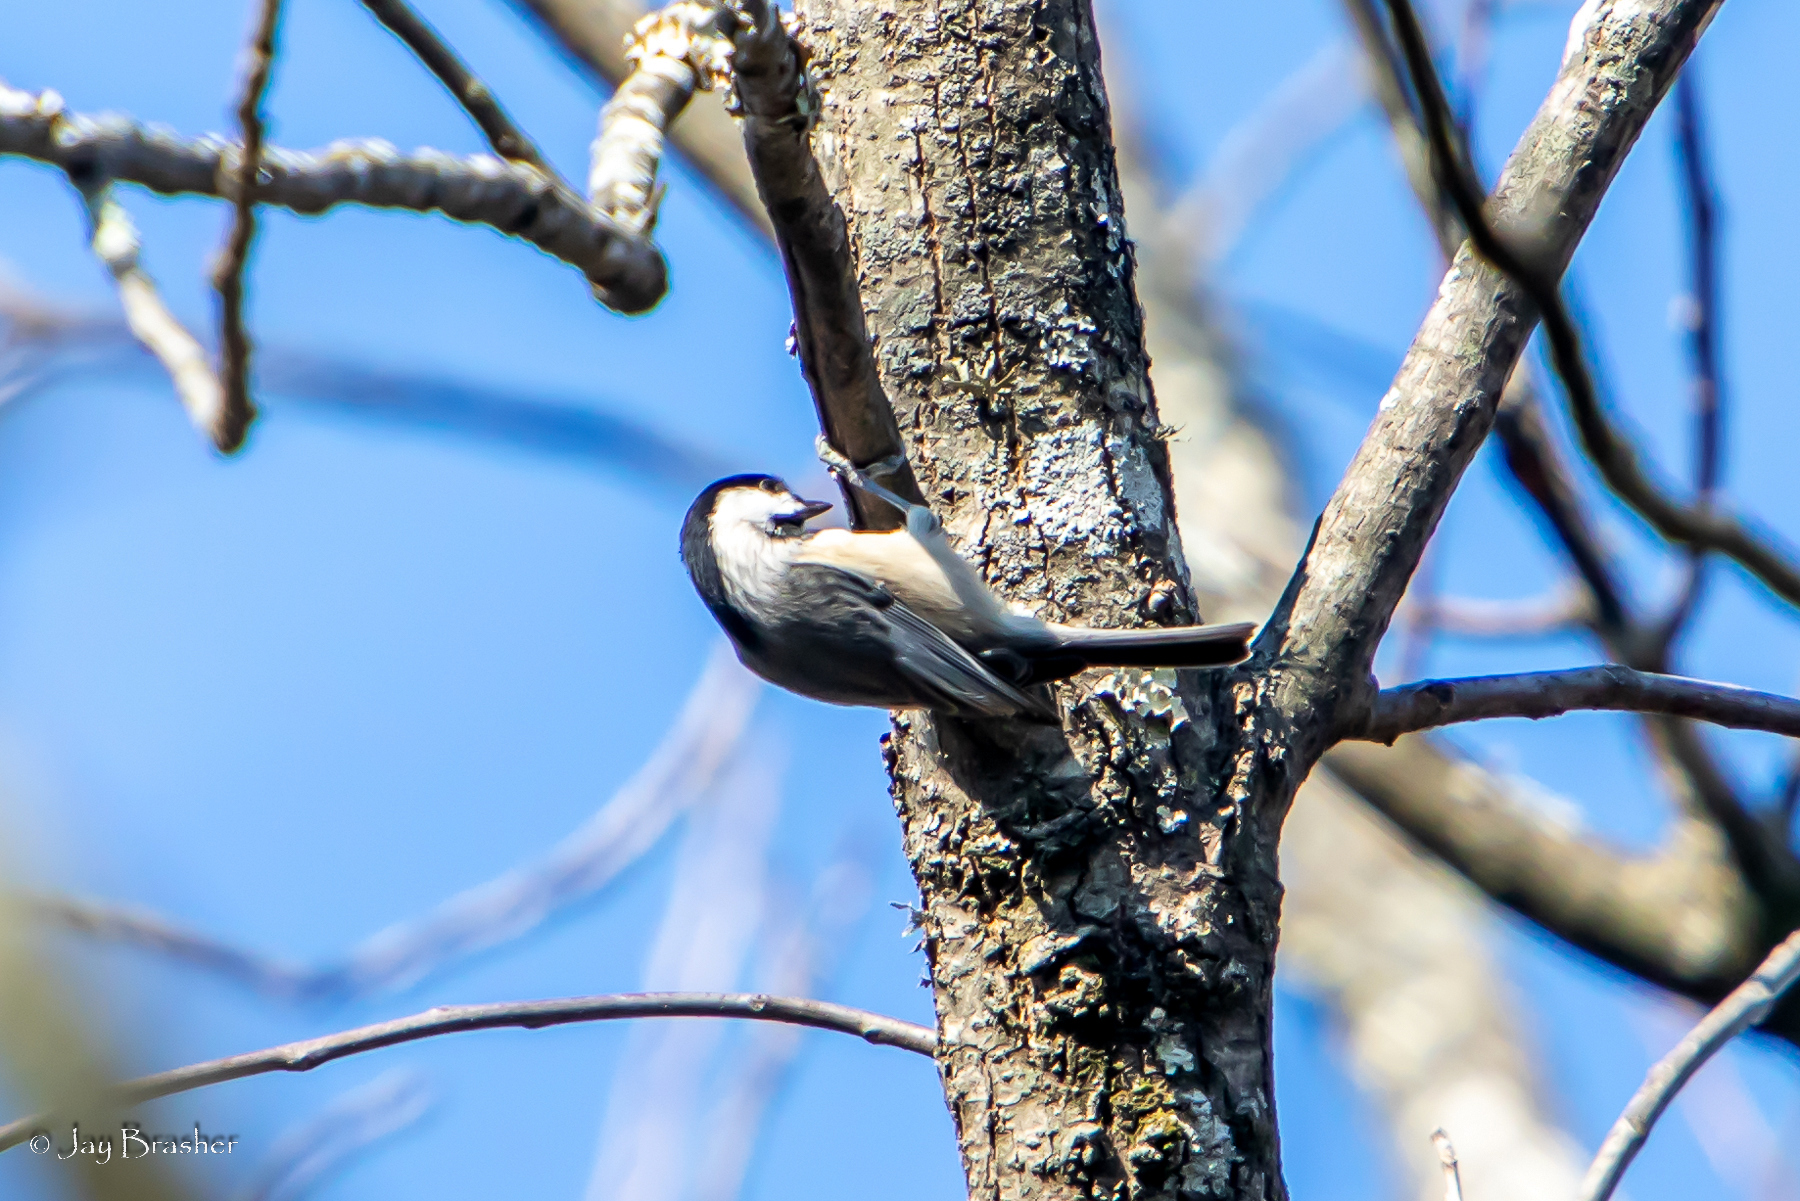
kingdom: Animalia
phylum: Chordata
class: Aves
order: Passeriformes
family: Paridae
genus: Poecile
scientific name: Poecile carolinensis
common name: Carolina chickadee
